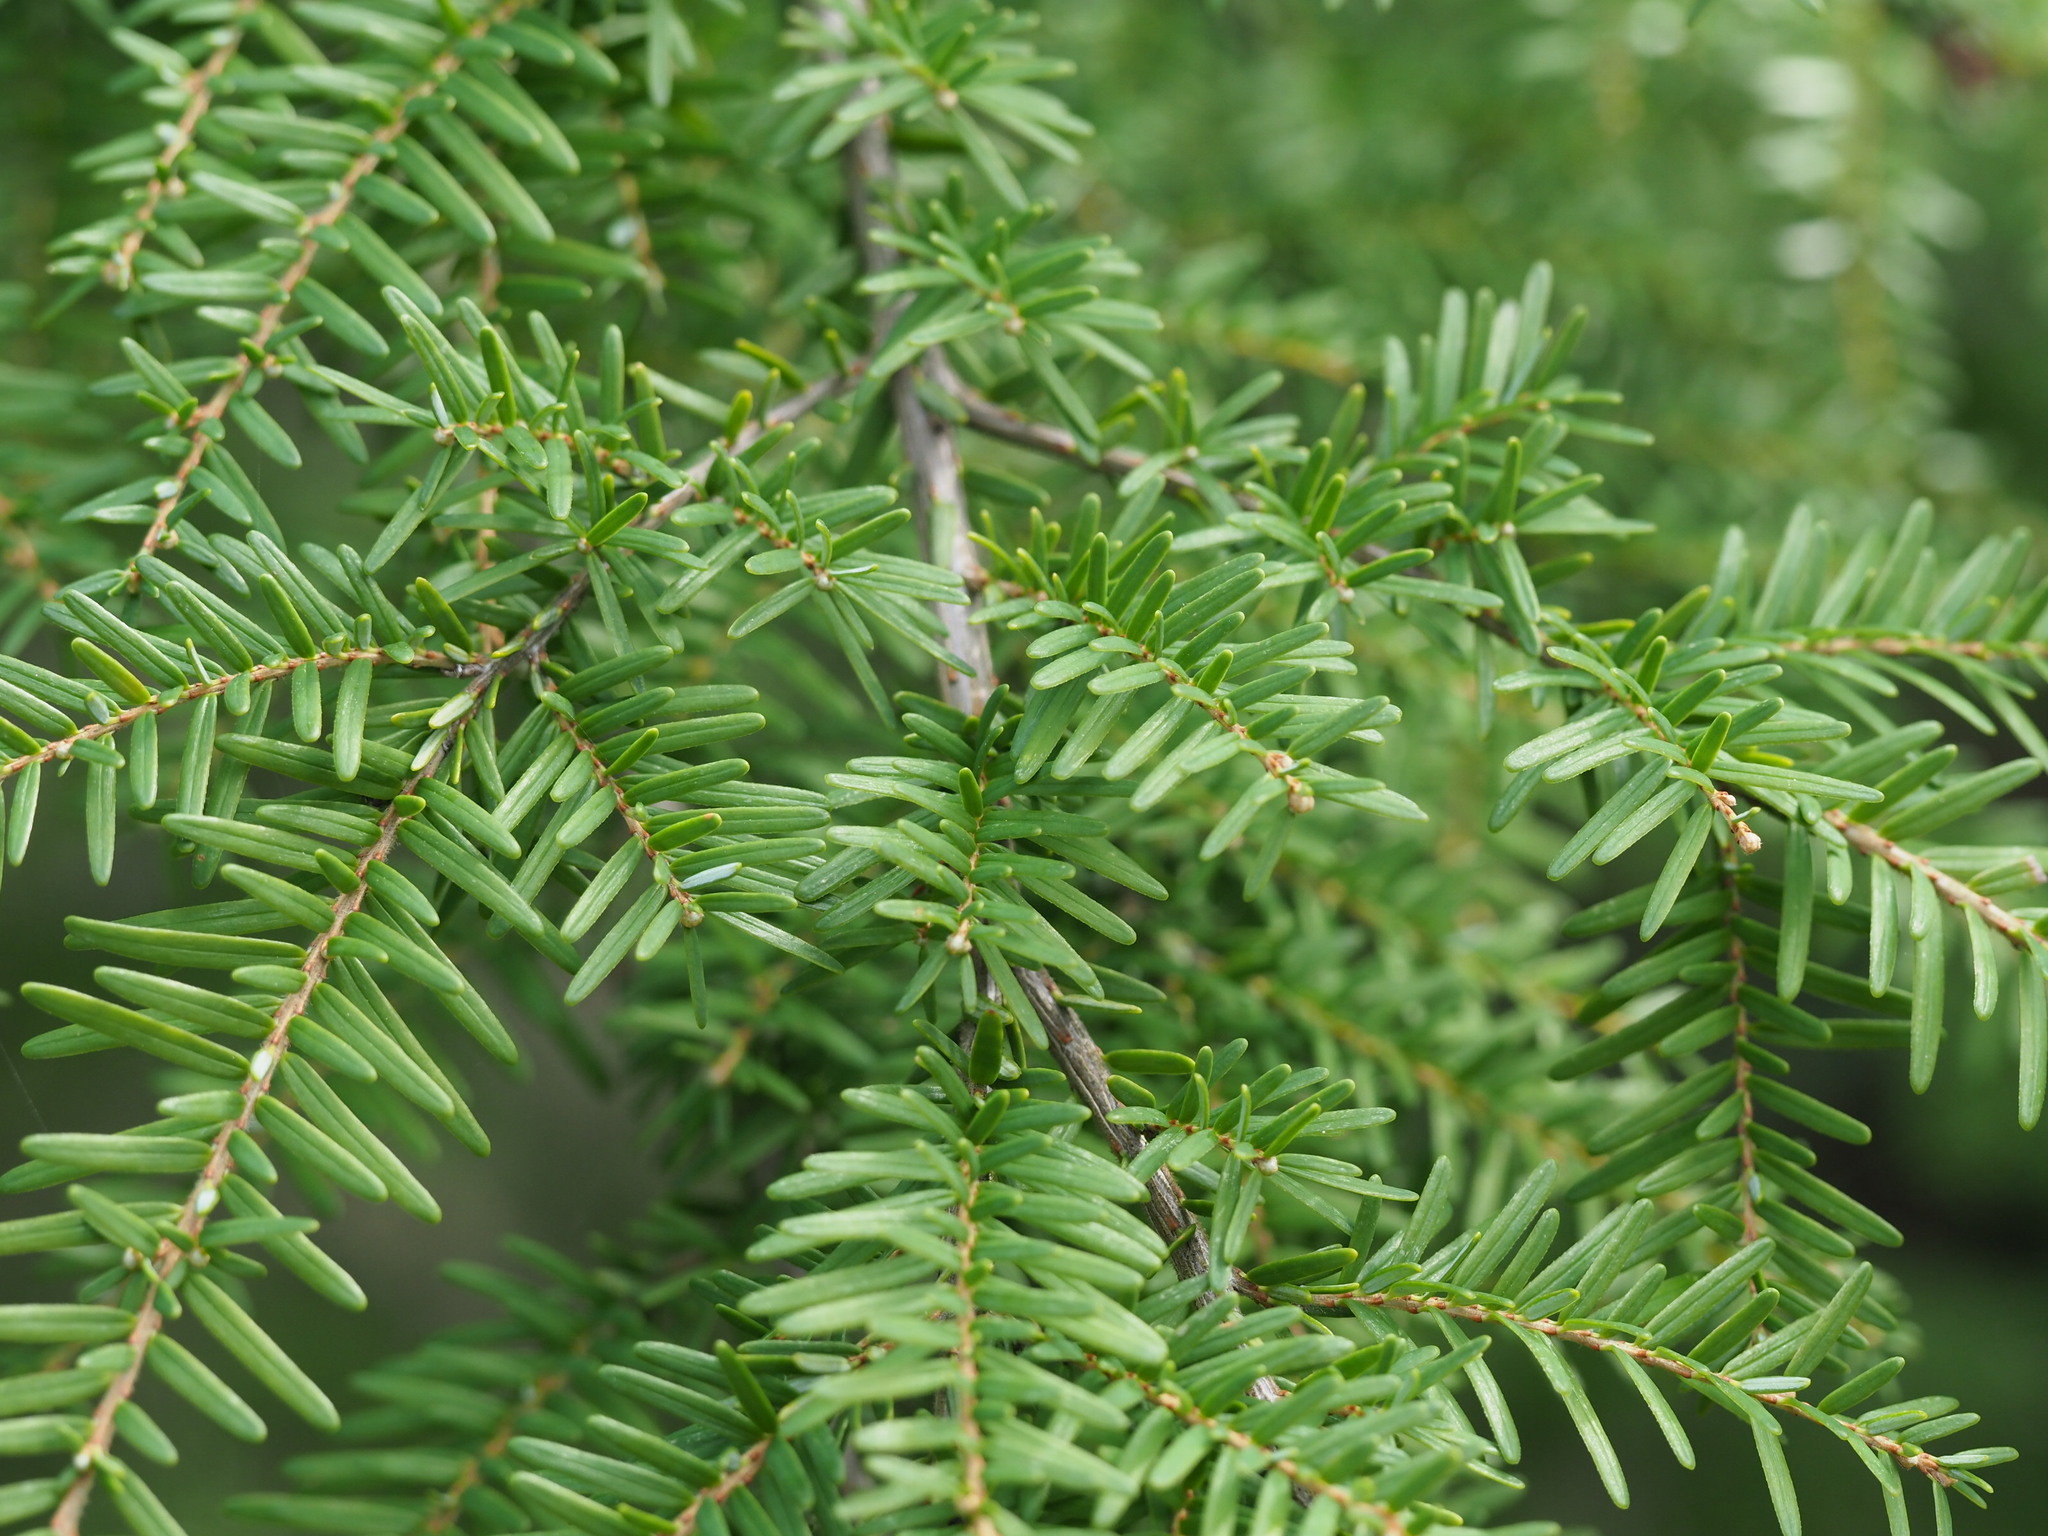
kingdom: Plantae
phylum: Tracheophyta
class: Pinopsida
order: Pinales
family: Pinaceae
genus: Tsuga
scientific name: Tsuga heterophylla
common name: Western hemlock
